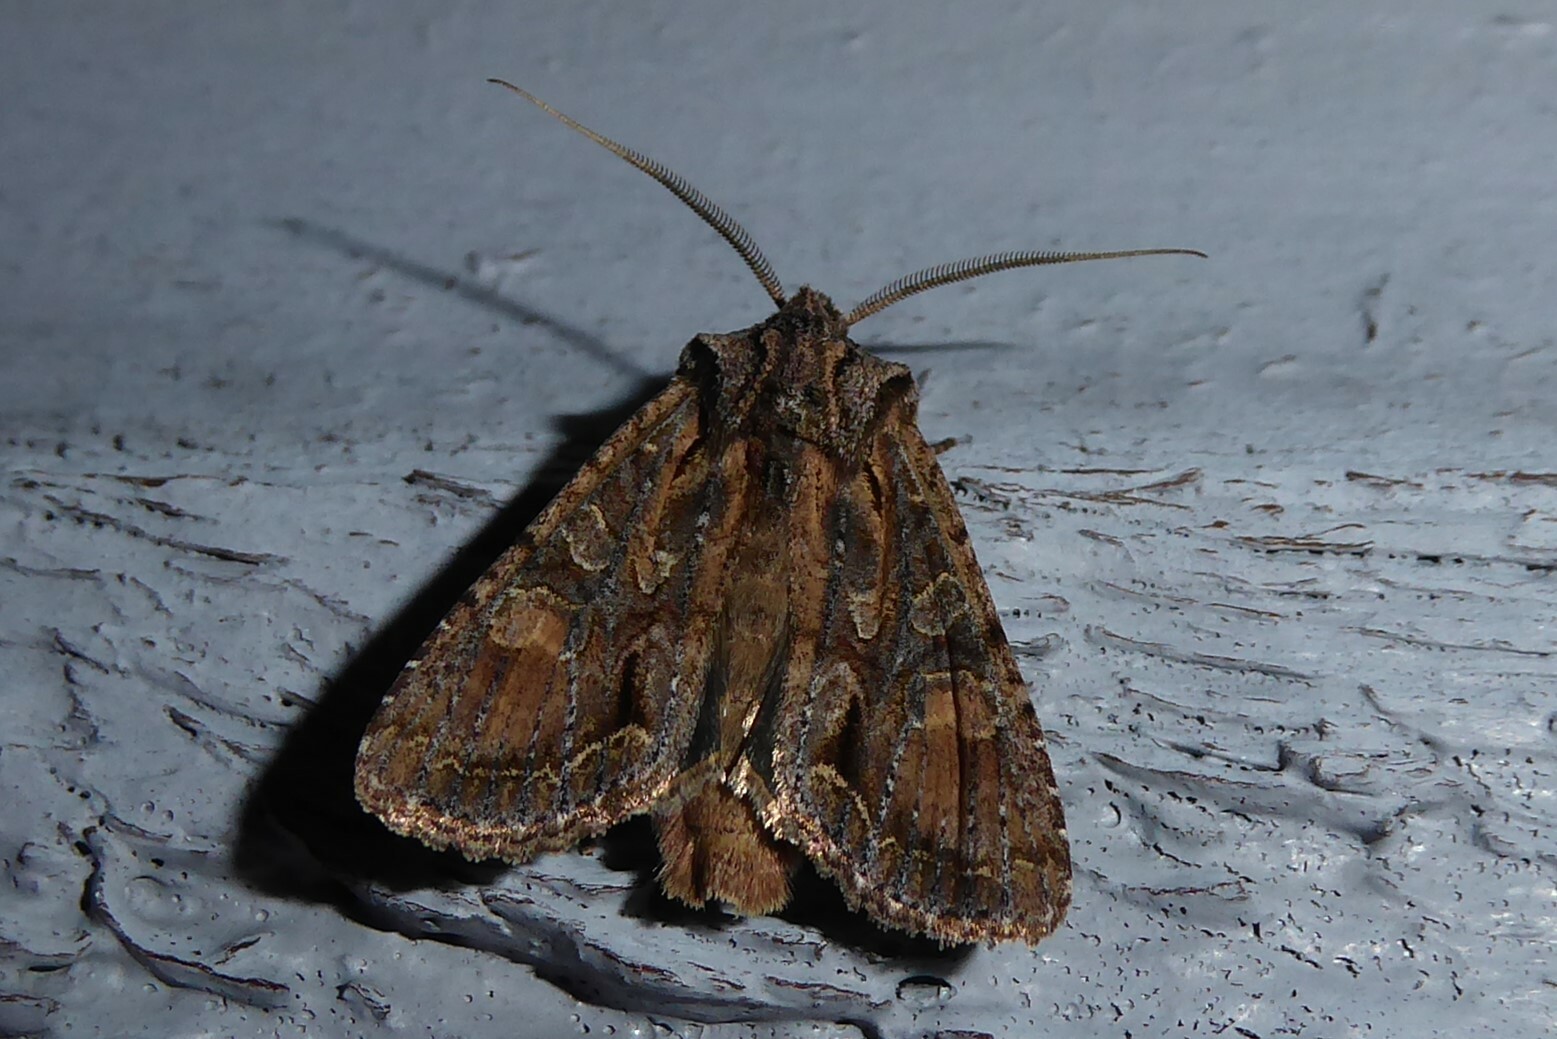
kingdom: Animalia
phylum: Arthropoda
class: Insecta
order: Lepidoptera
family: Noctuidae
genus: Ichneutica
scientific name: Ichneutica mutans
